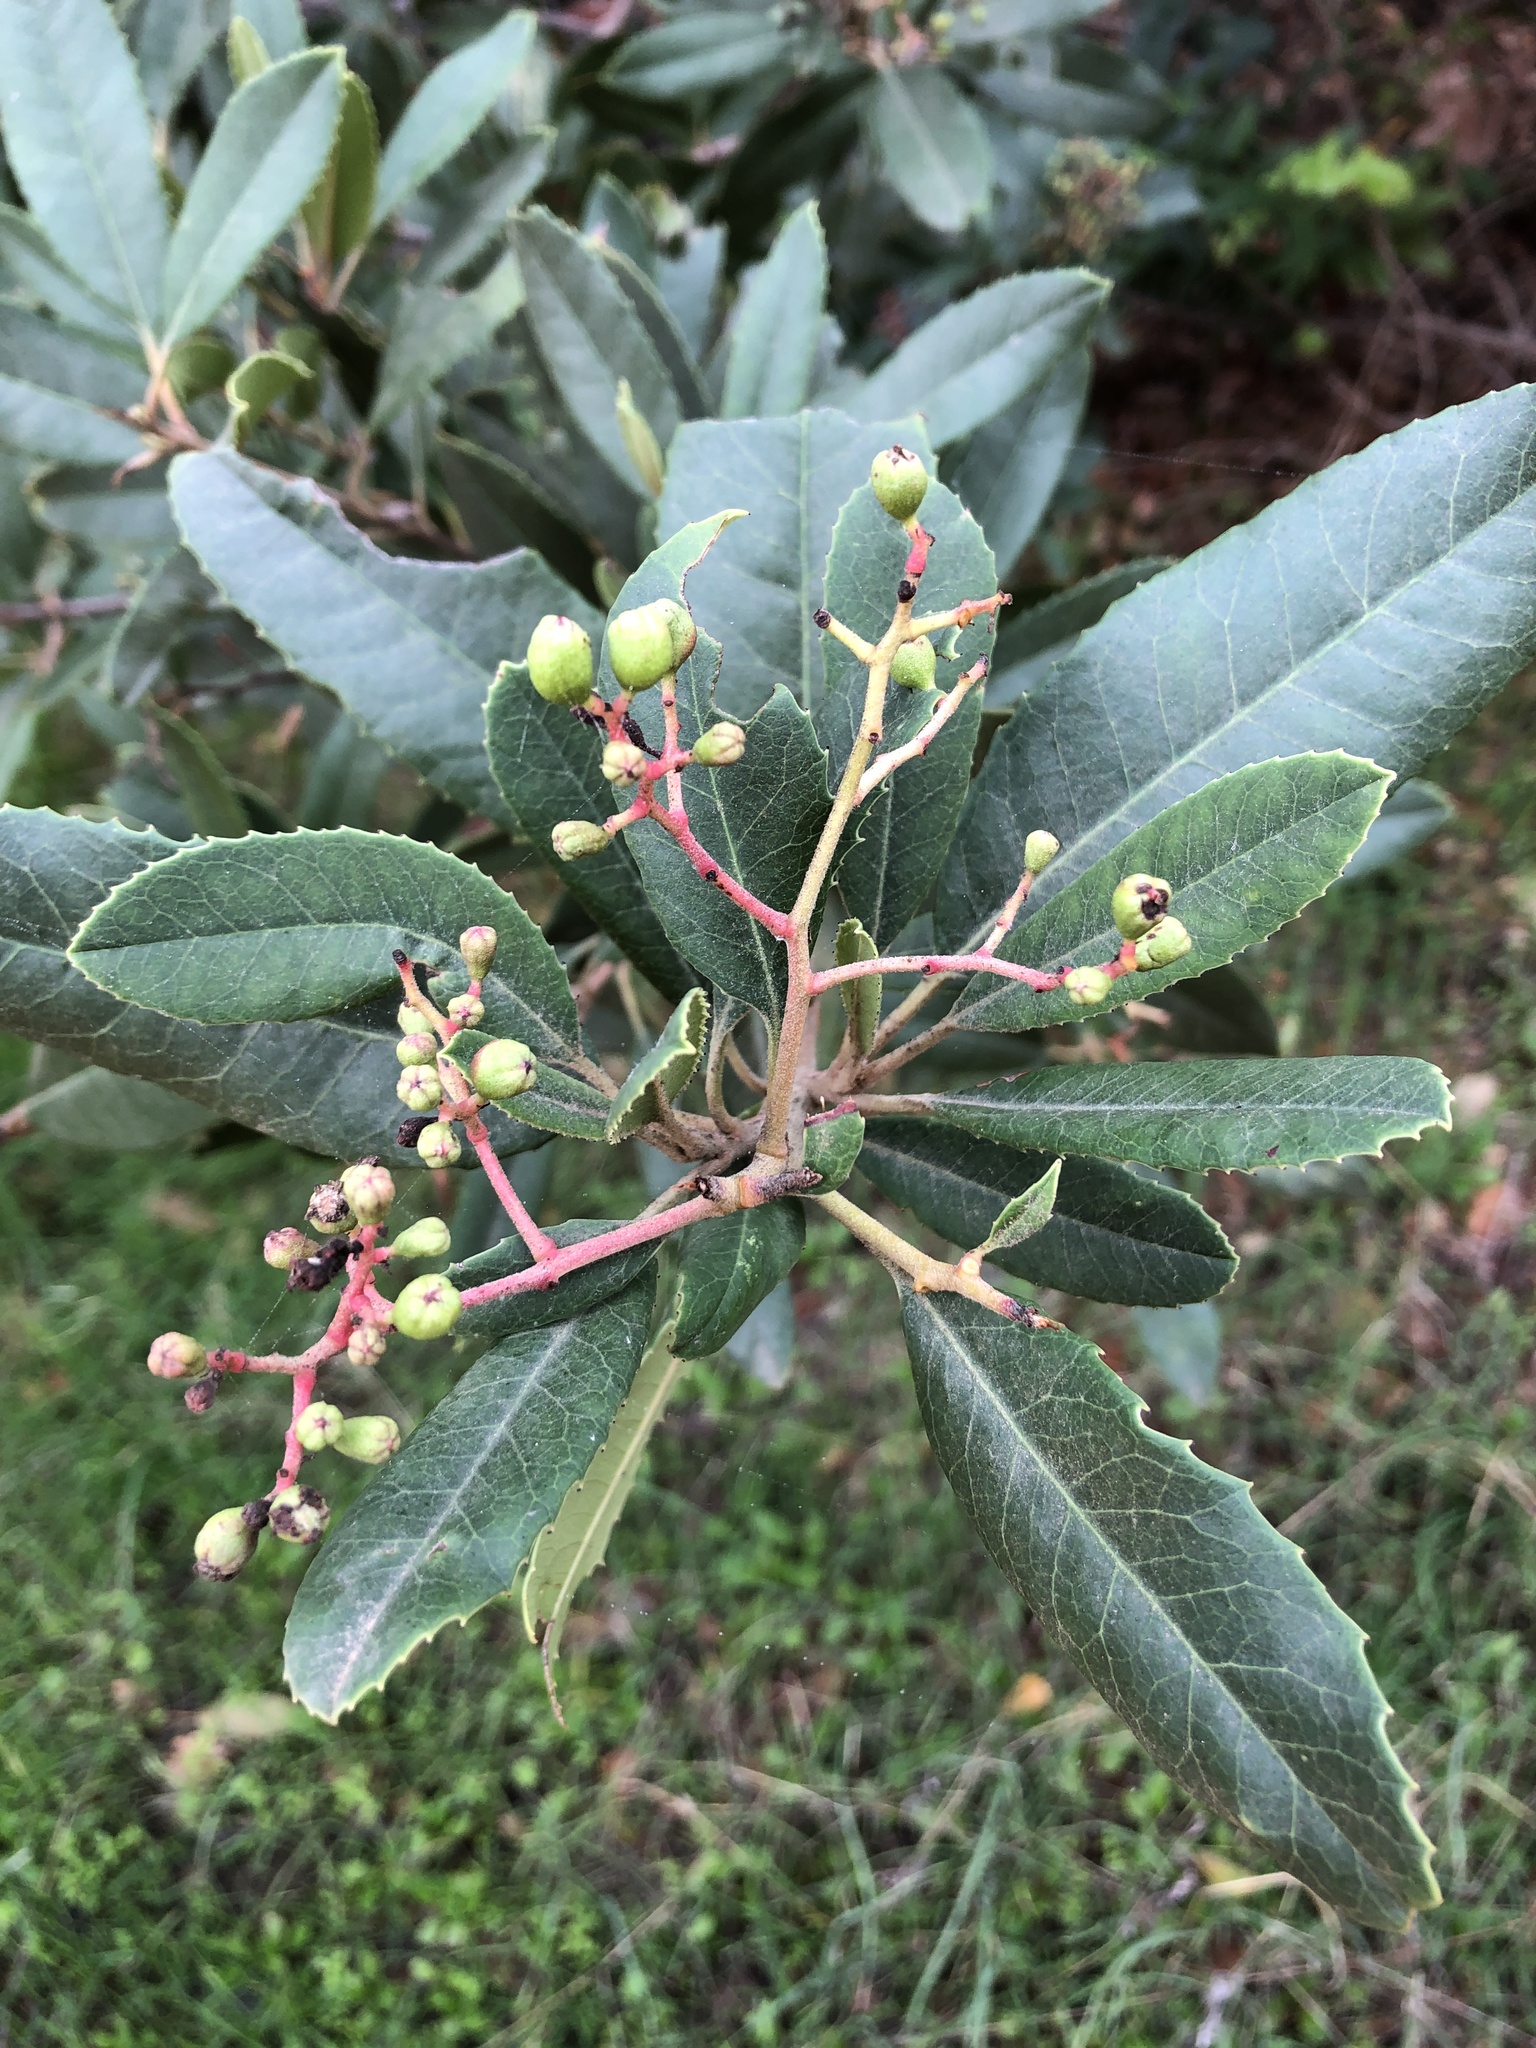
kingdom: Plantae
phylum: Tracheophyta
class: Magnoliopsida
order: Rosales
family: Rosaceae
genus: Heteromeles
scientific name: Heteromeles arbutifolia
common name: California-holly
